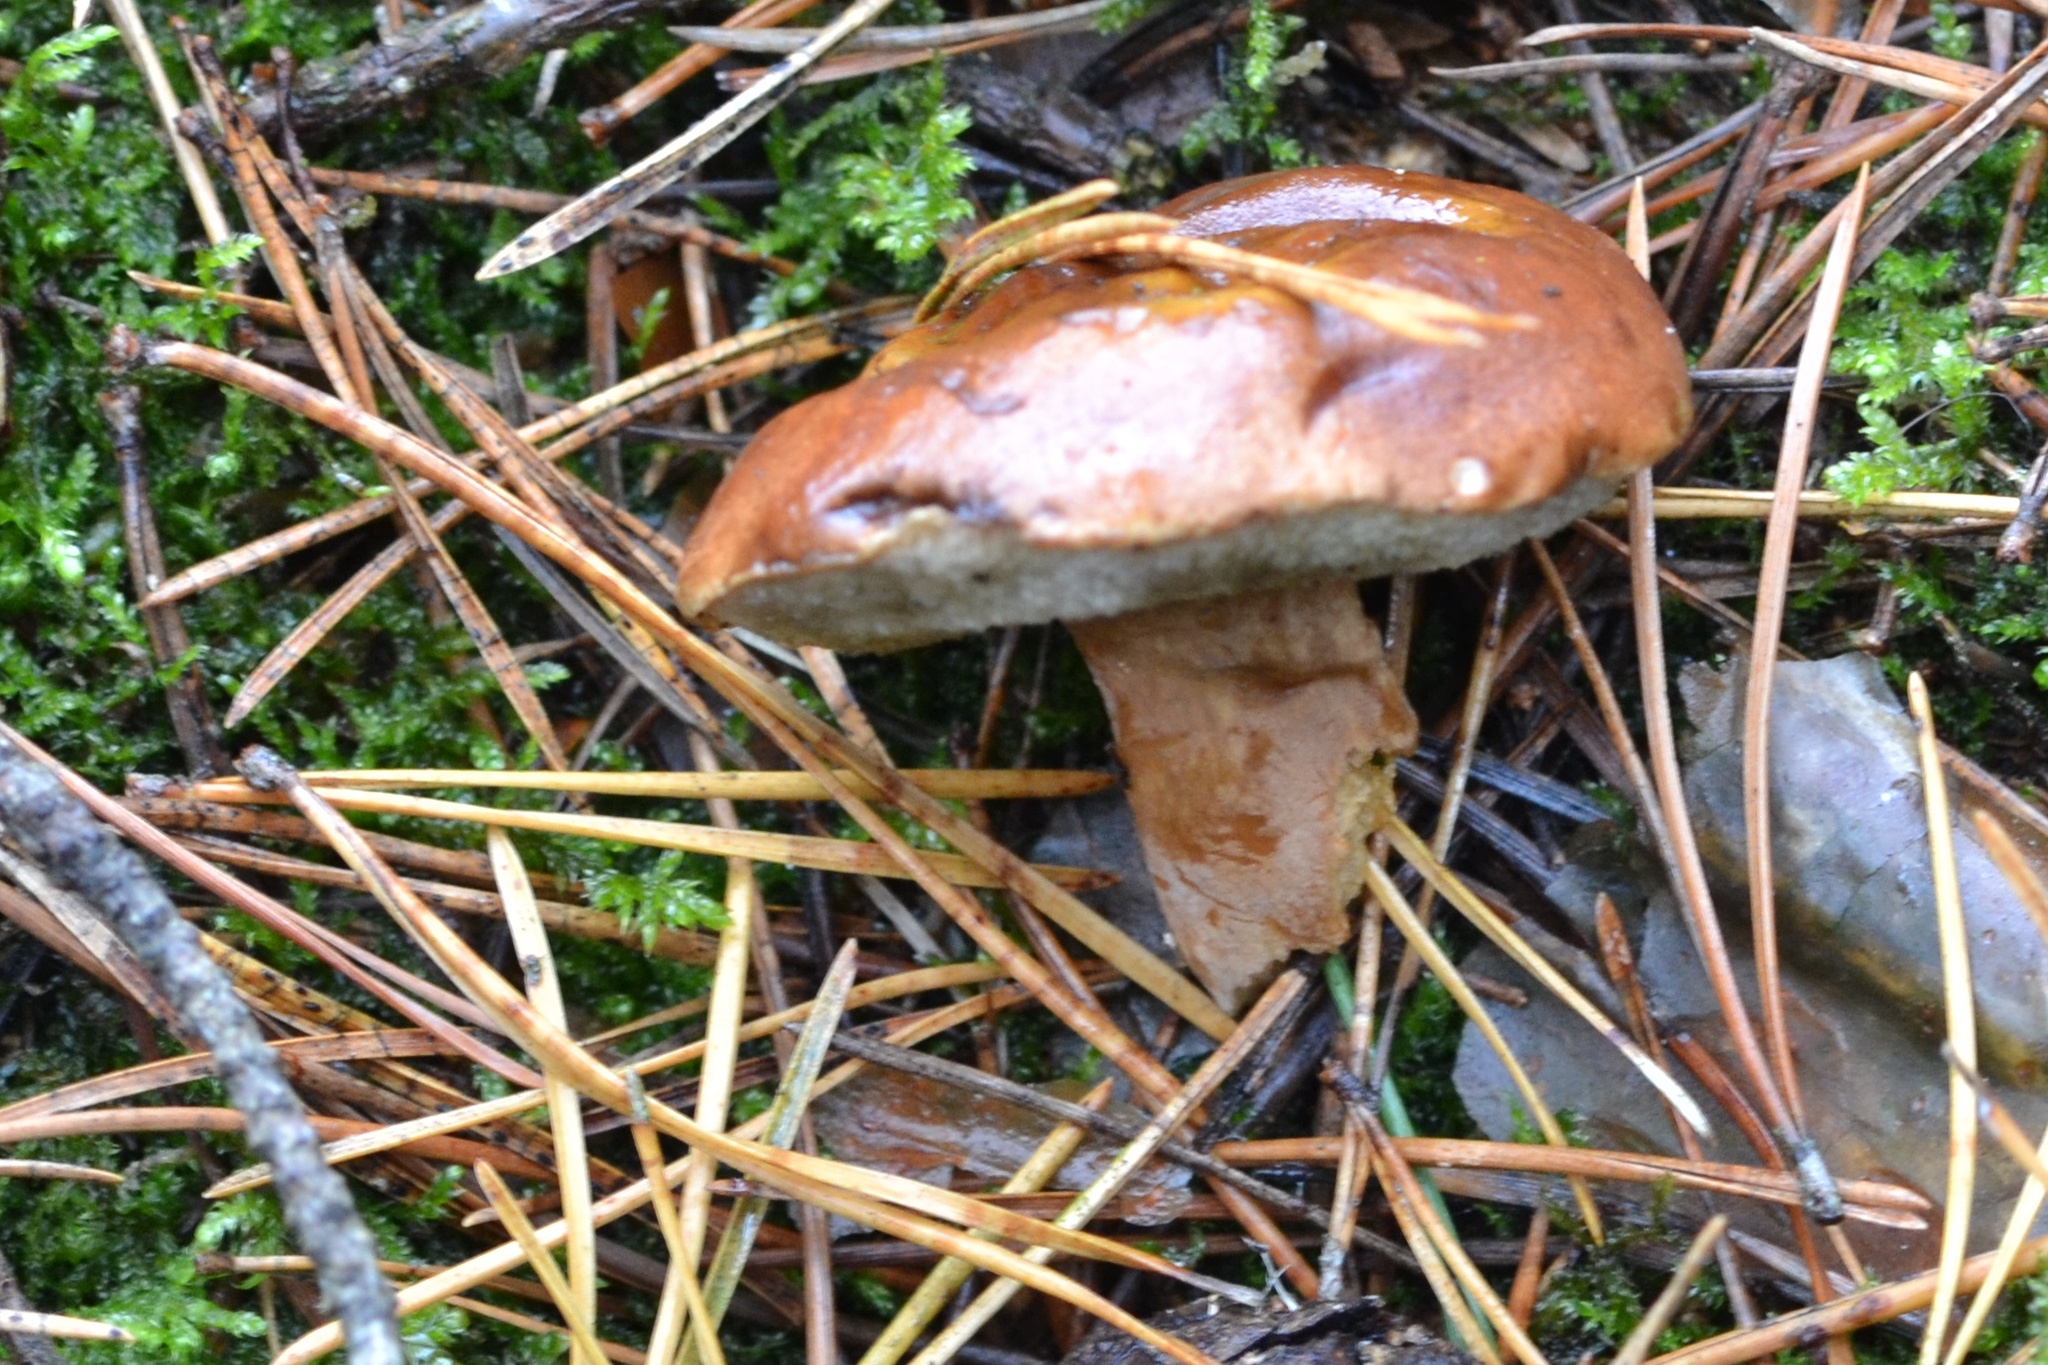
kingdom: Fungi
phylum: Basidiomycota
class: Agaricomycetes
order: Boletales
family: Boletaceae
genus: Imleria
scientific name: Imleria badia
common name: Bay bolete
